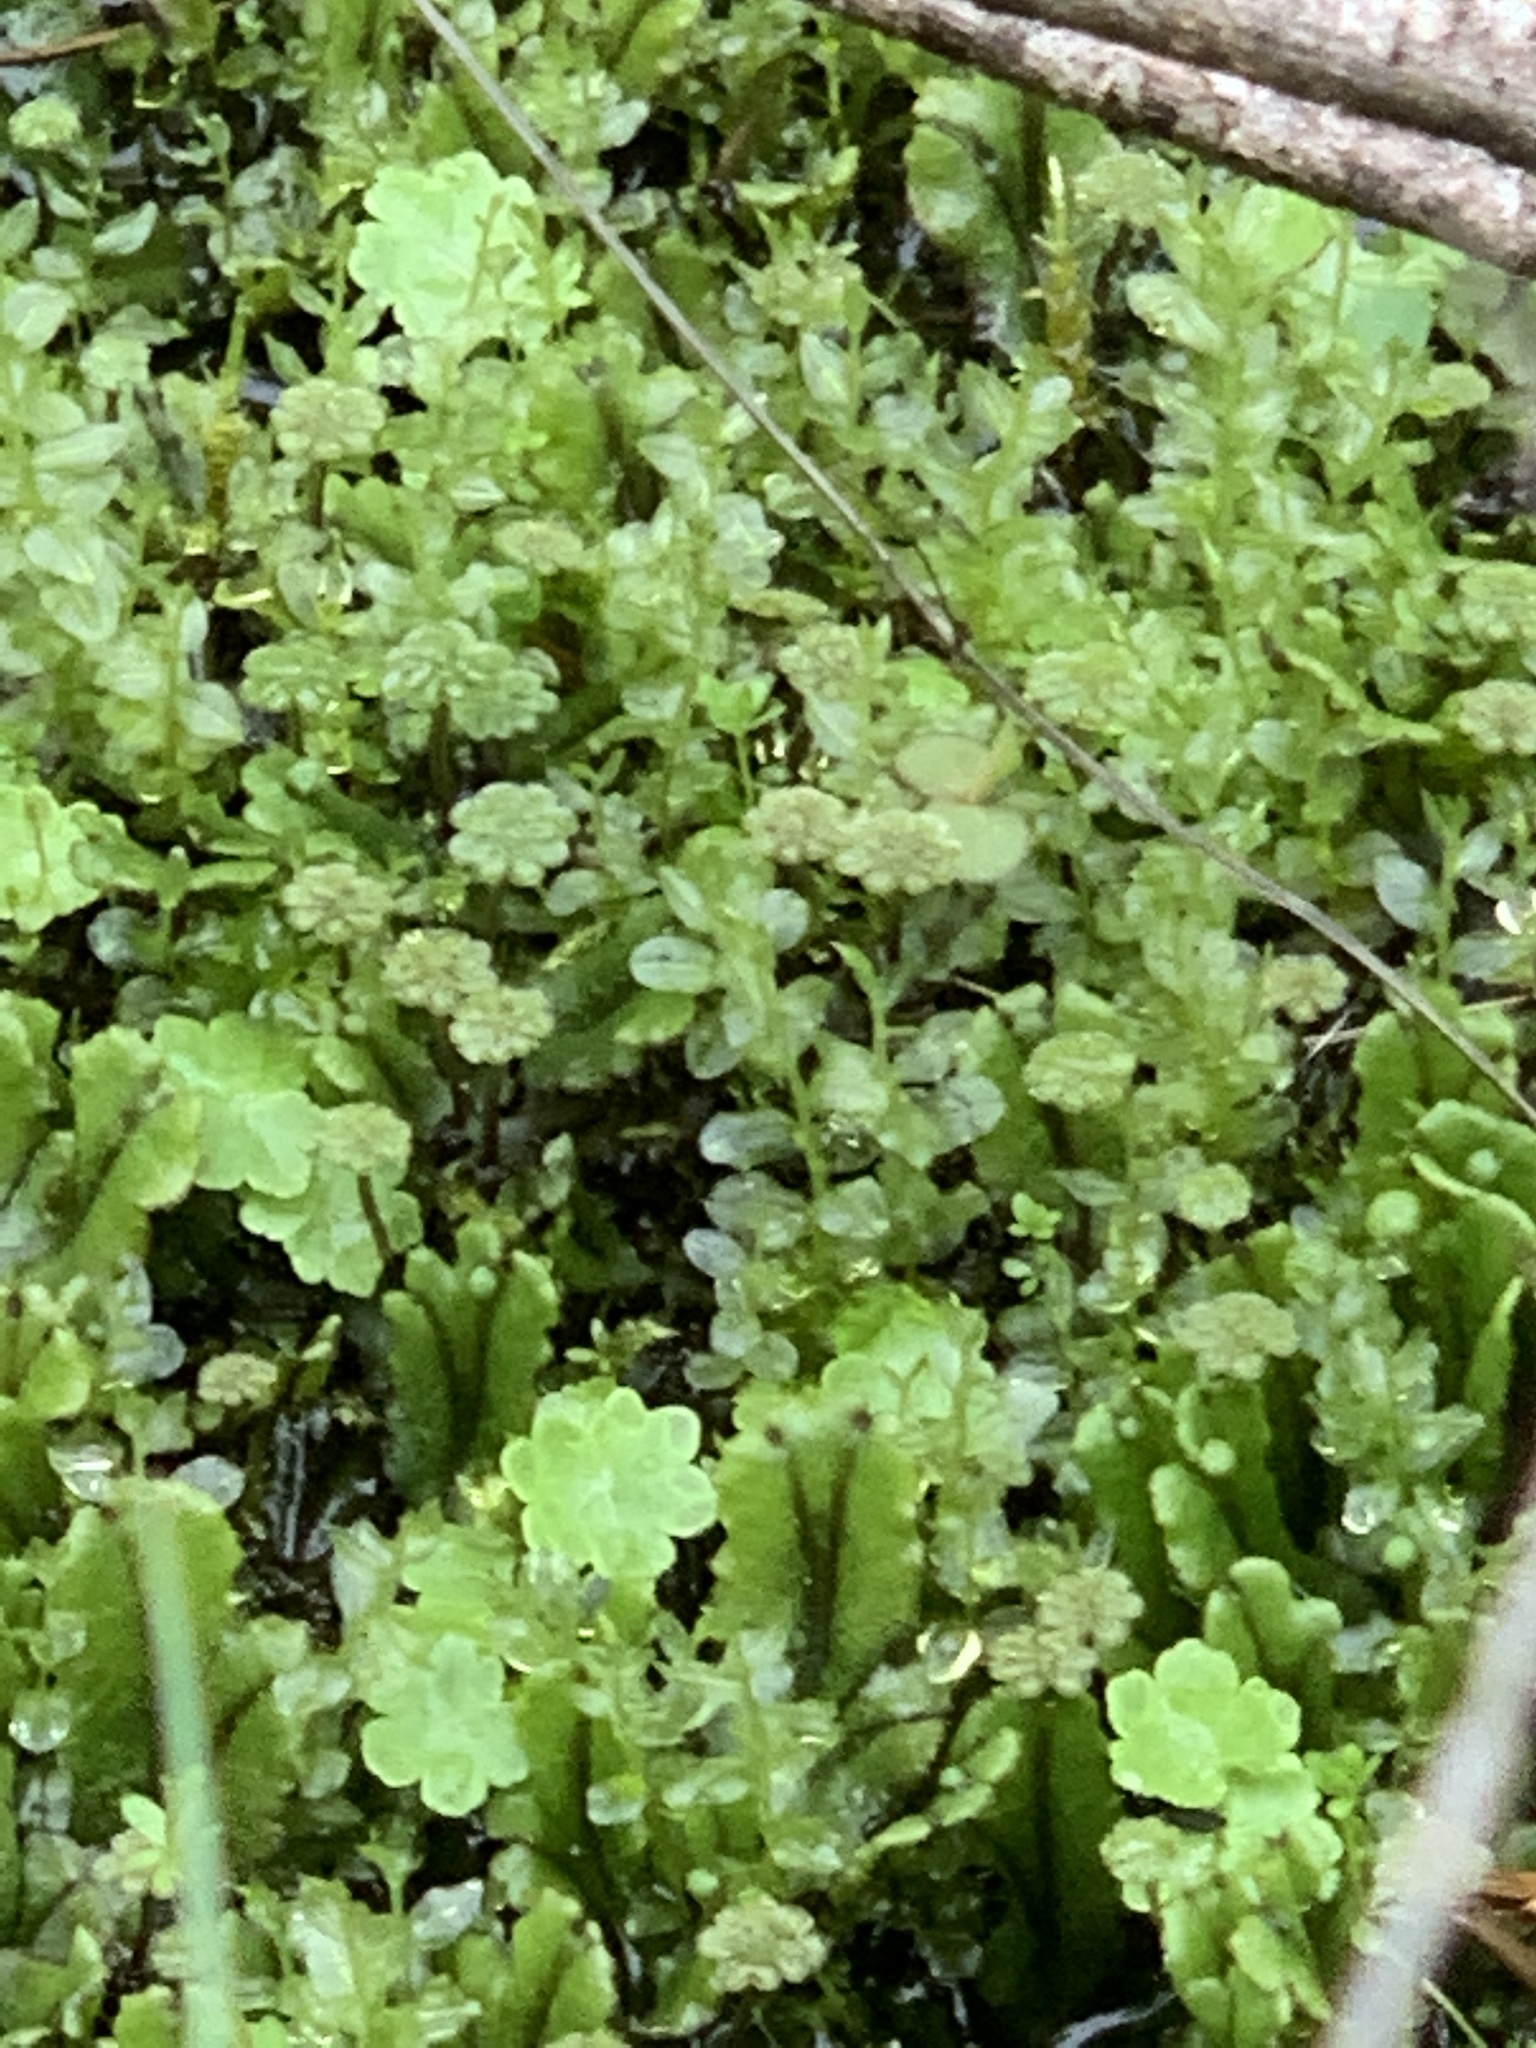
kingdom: Plantae
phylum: Marchantiophyta
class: Marchantiopsida
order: Marchantiales
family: Marchantiaceae
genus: Marchantia
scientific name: Marchantia polymorpha
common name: Common liverwort
